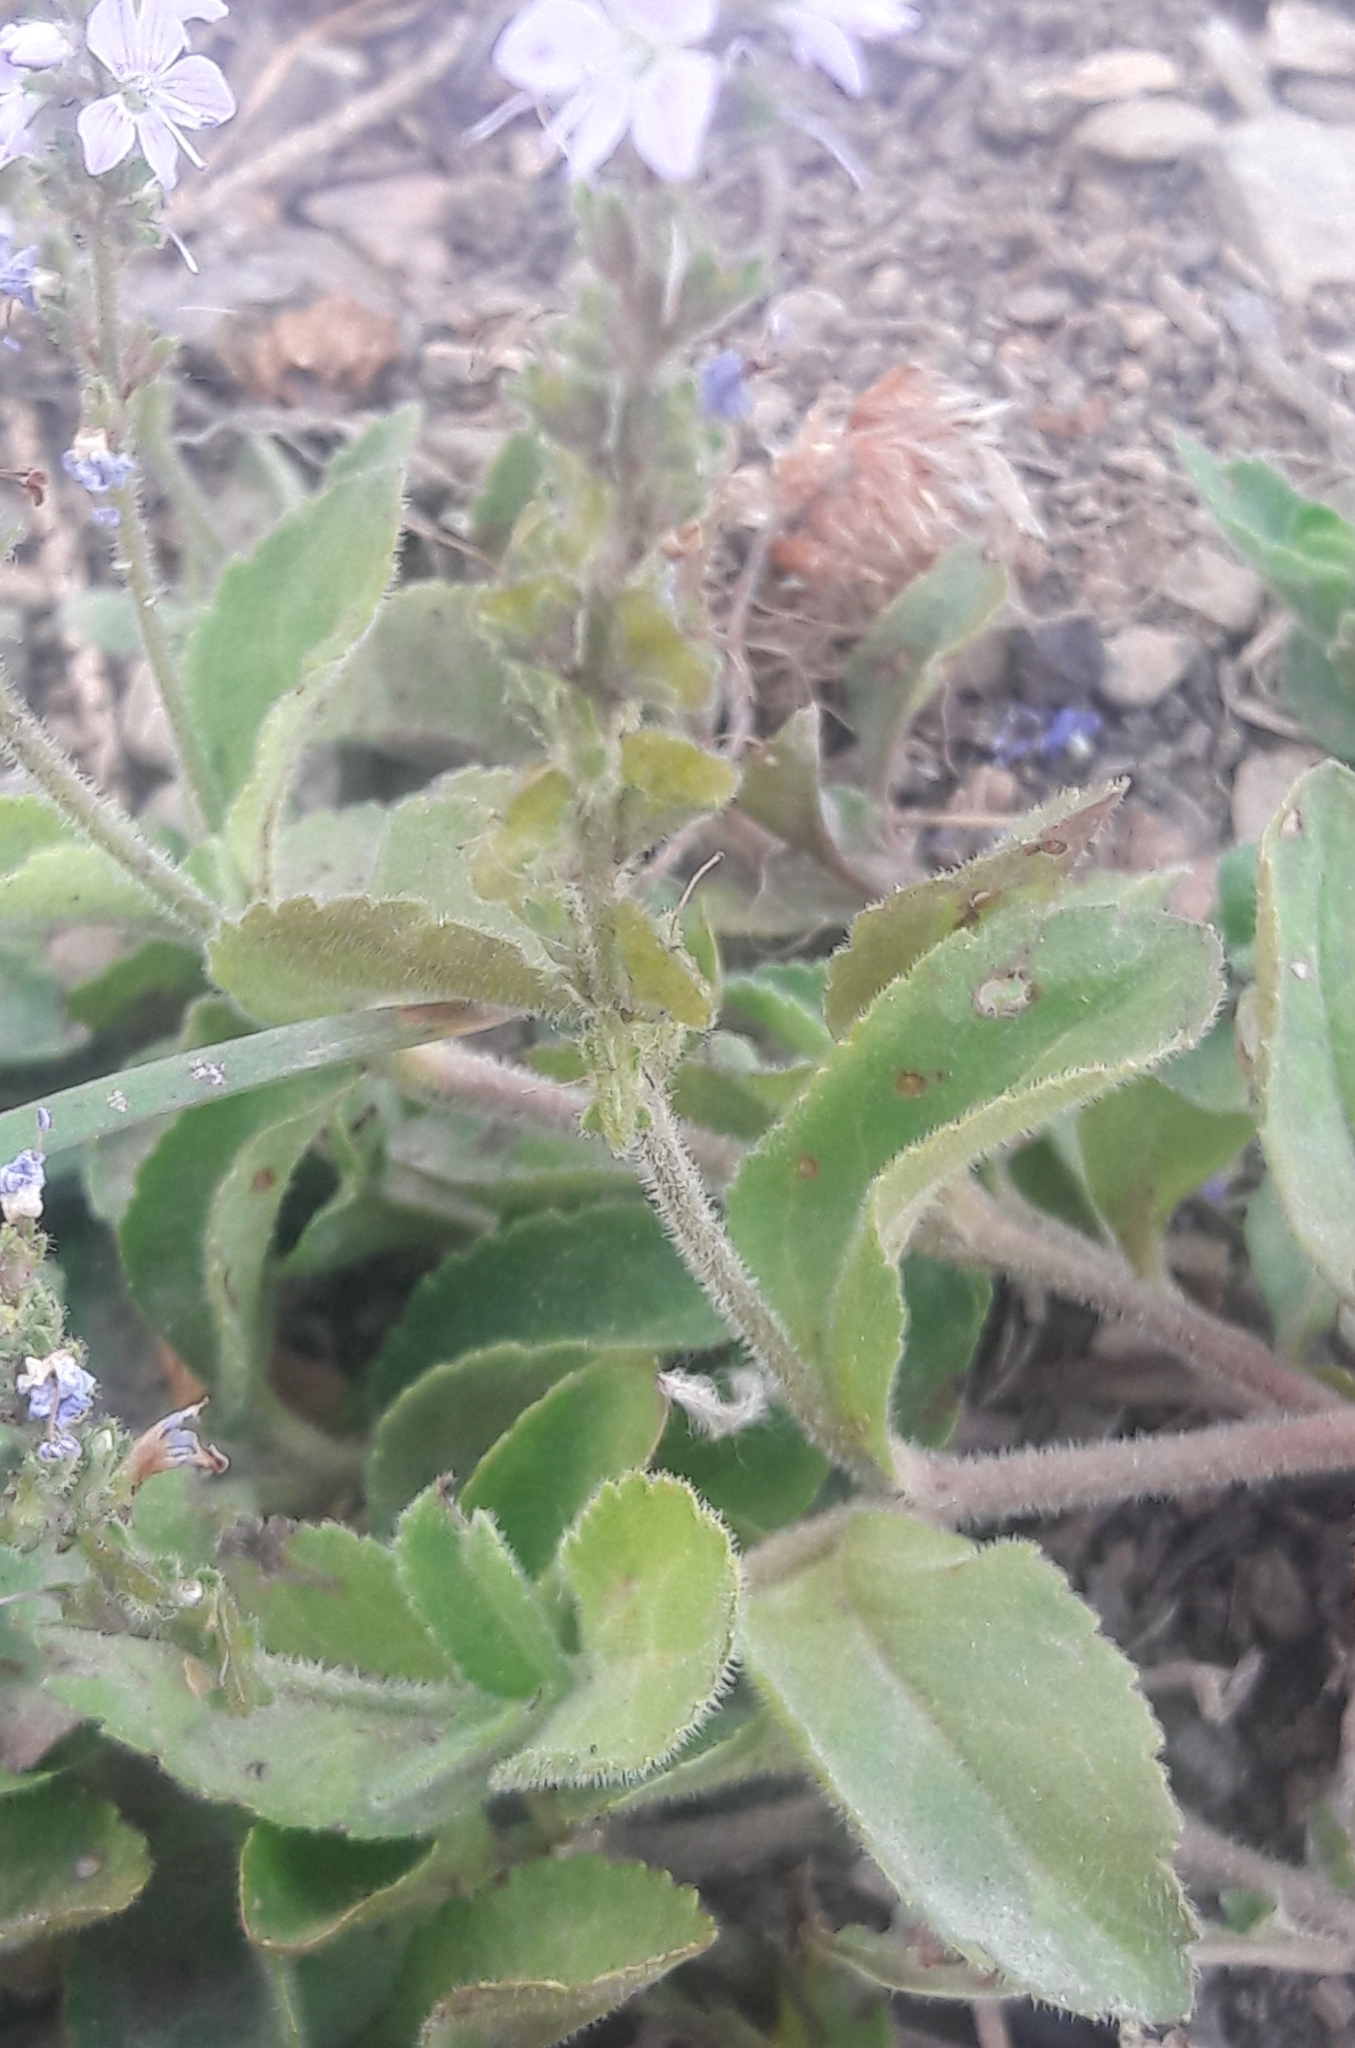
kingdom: Plantae
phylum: Tracheophyta
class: Magnoliopsida
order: Lamiales
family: Plantaginaceae
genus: Veronica
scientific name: Veronica officinalis
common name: Common speedwell
